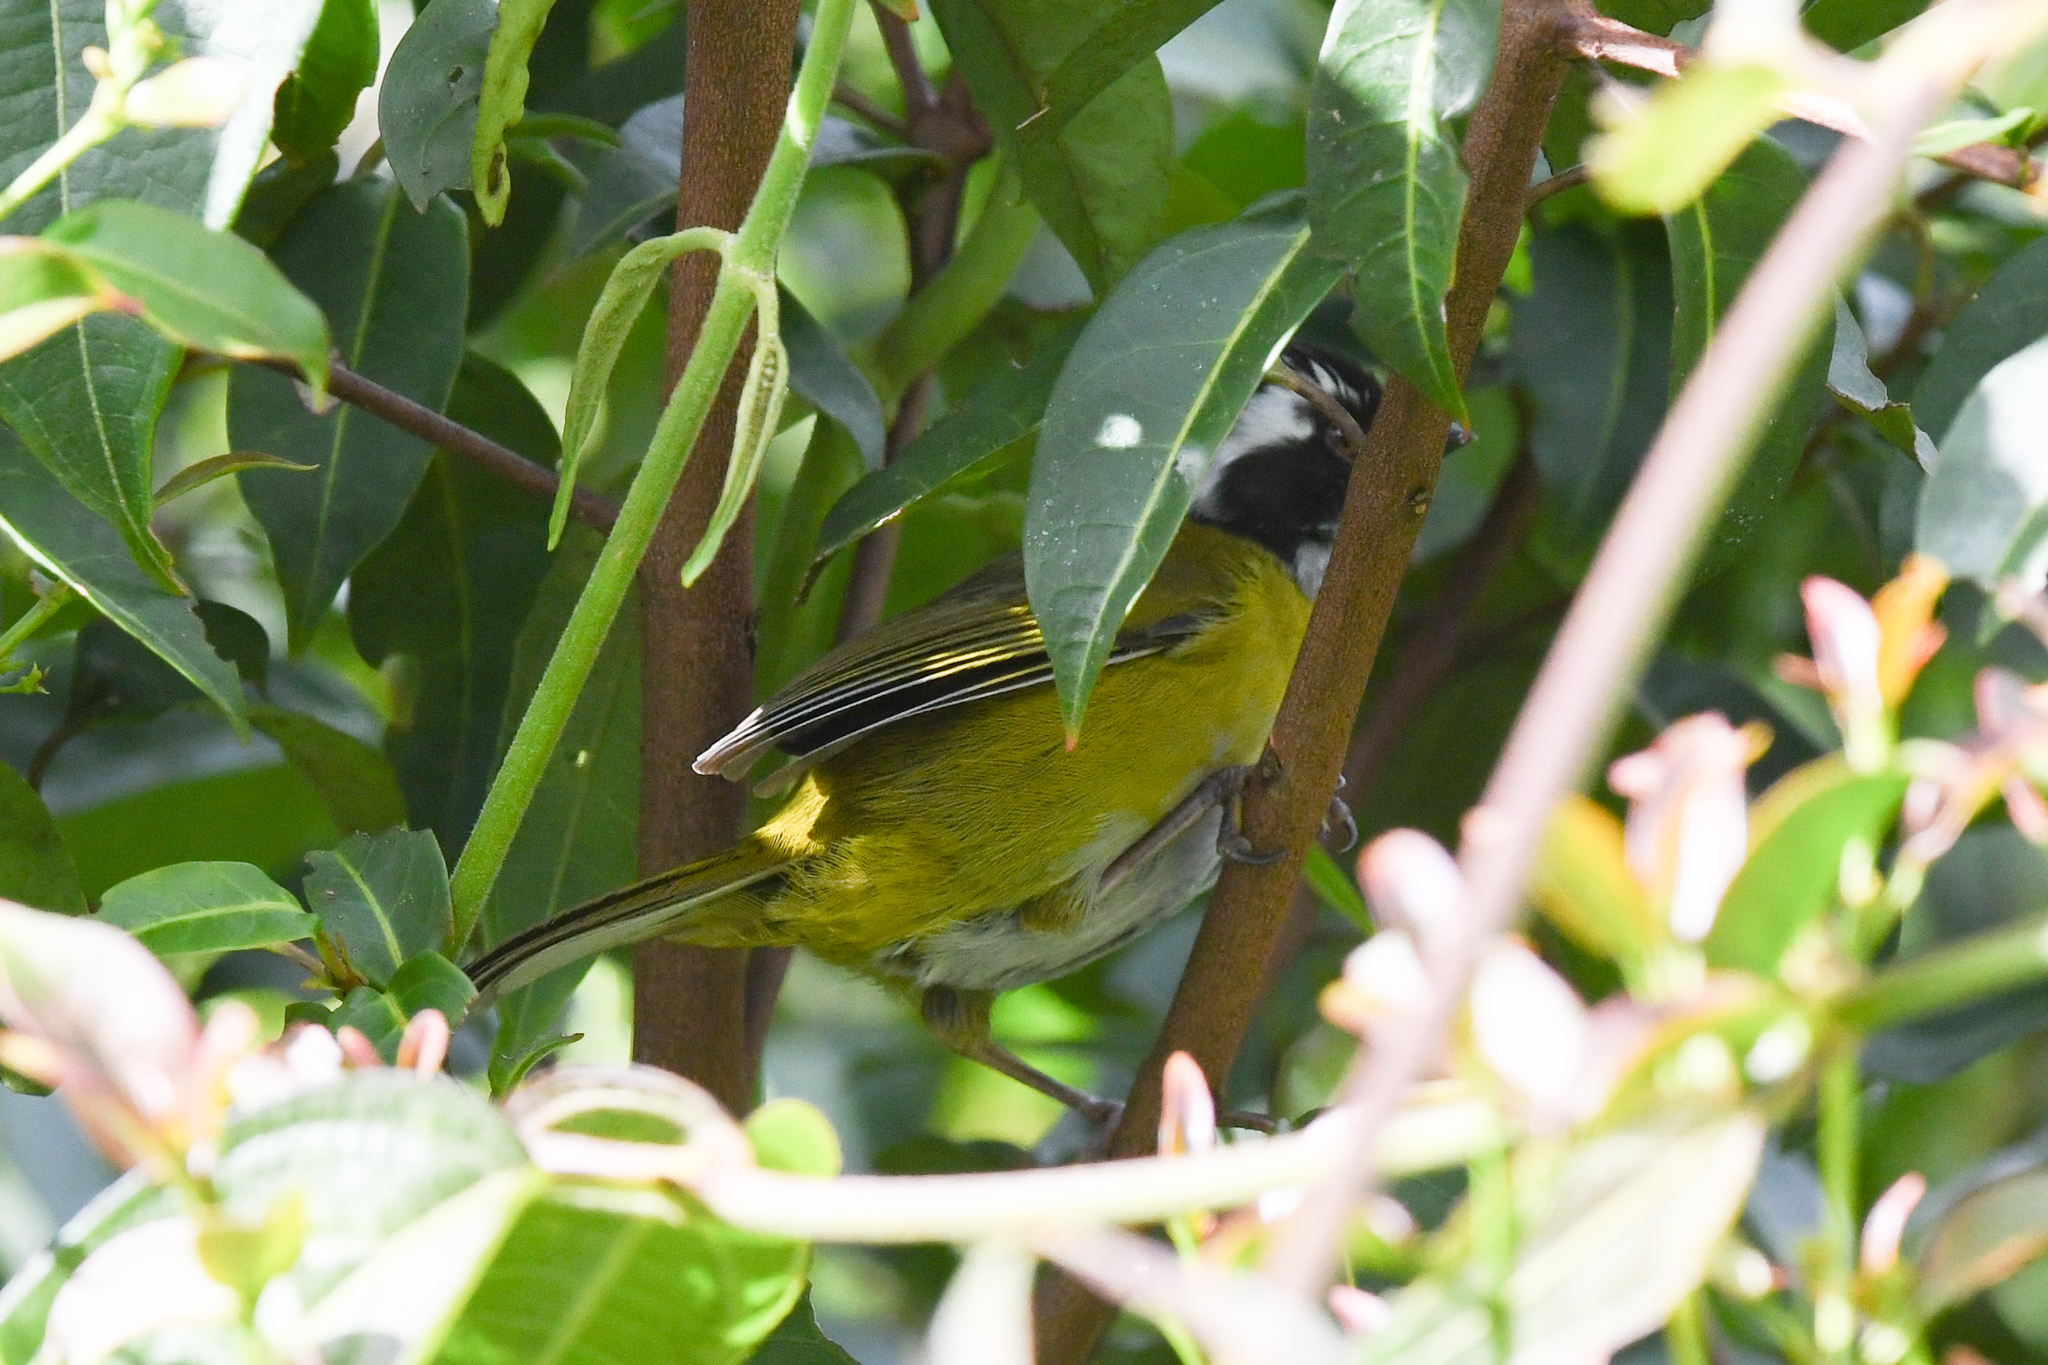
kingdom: Animalia
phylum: Chordata
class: Aves
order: Passeriformes
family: Passerellidae
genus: Chlorospingus
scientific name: Chlorospingus pileatus
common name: Sooty-capped bush-tanager
